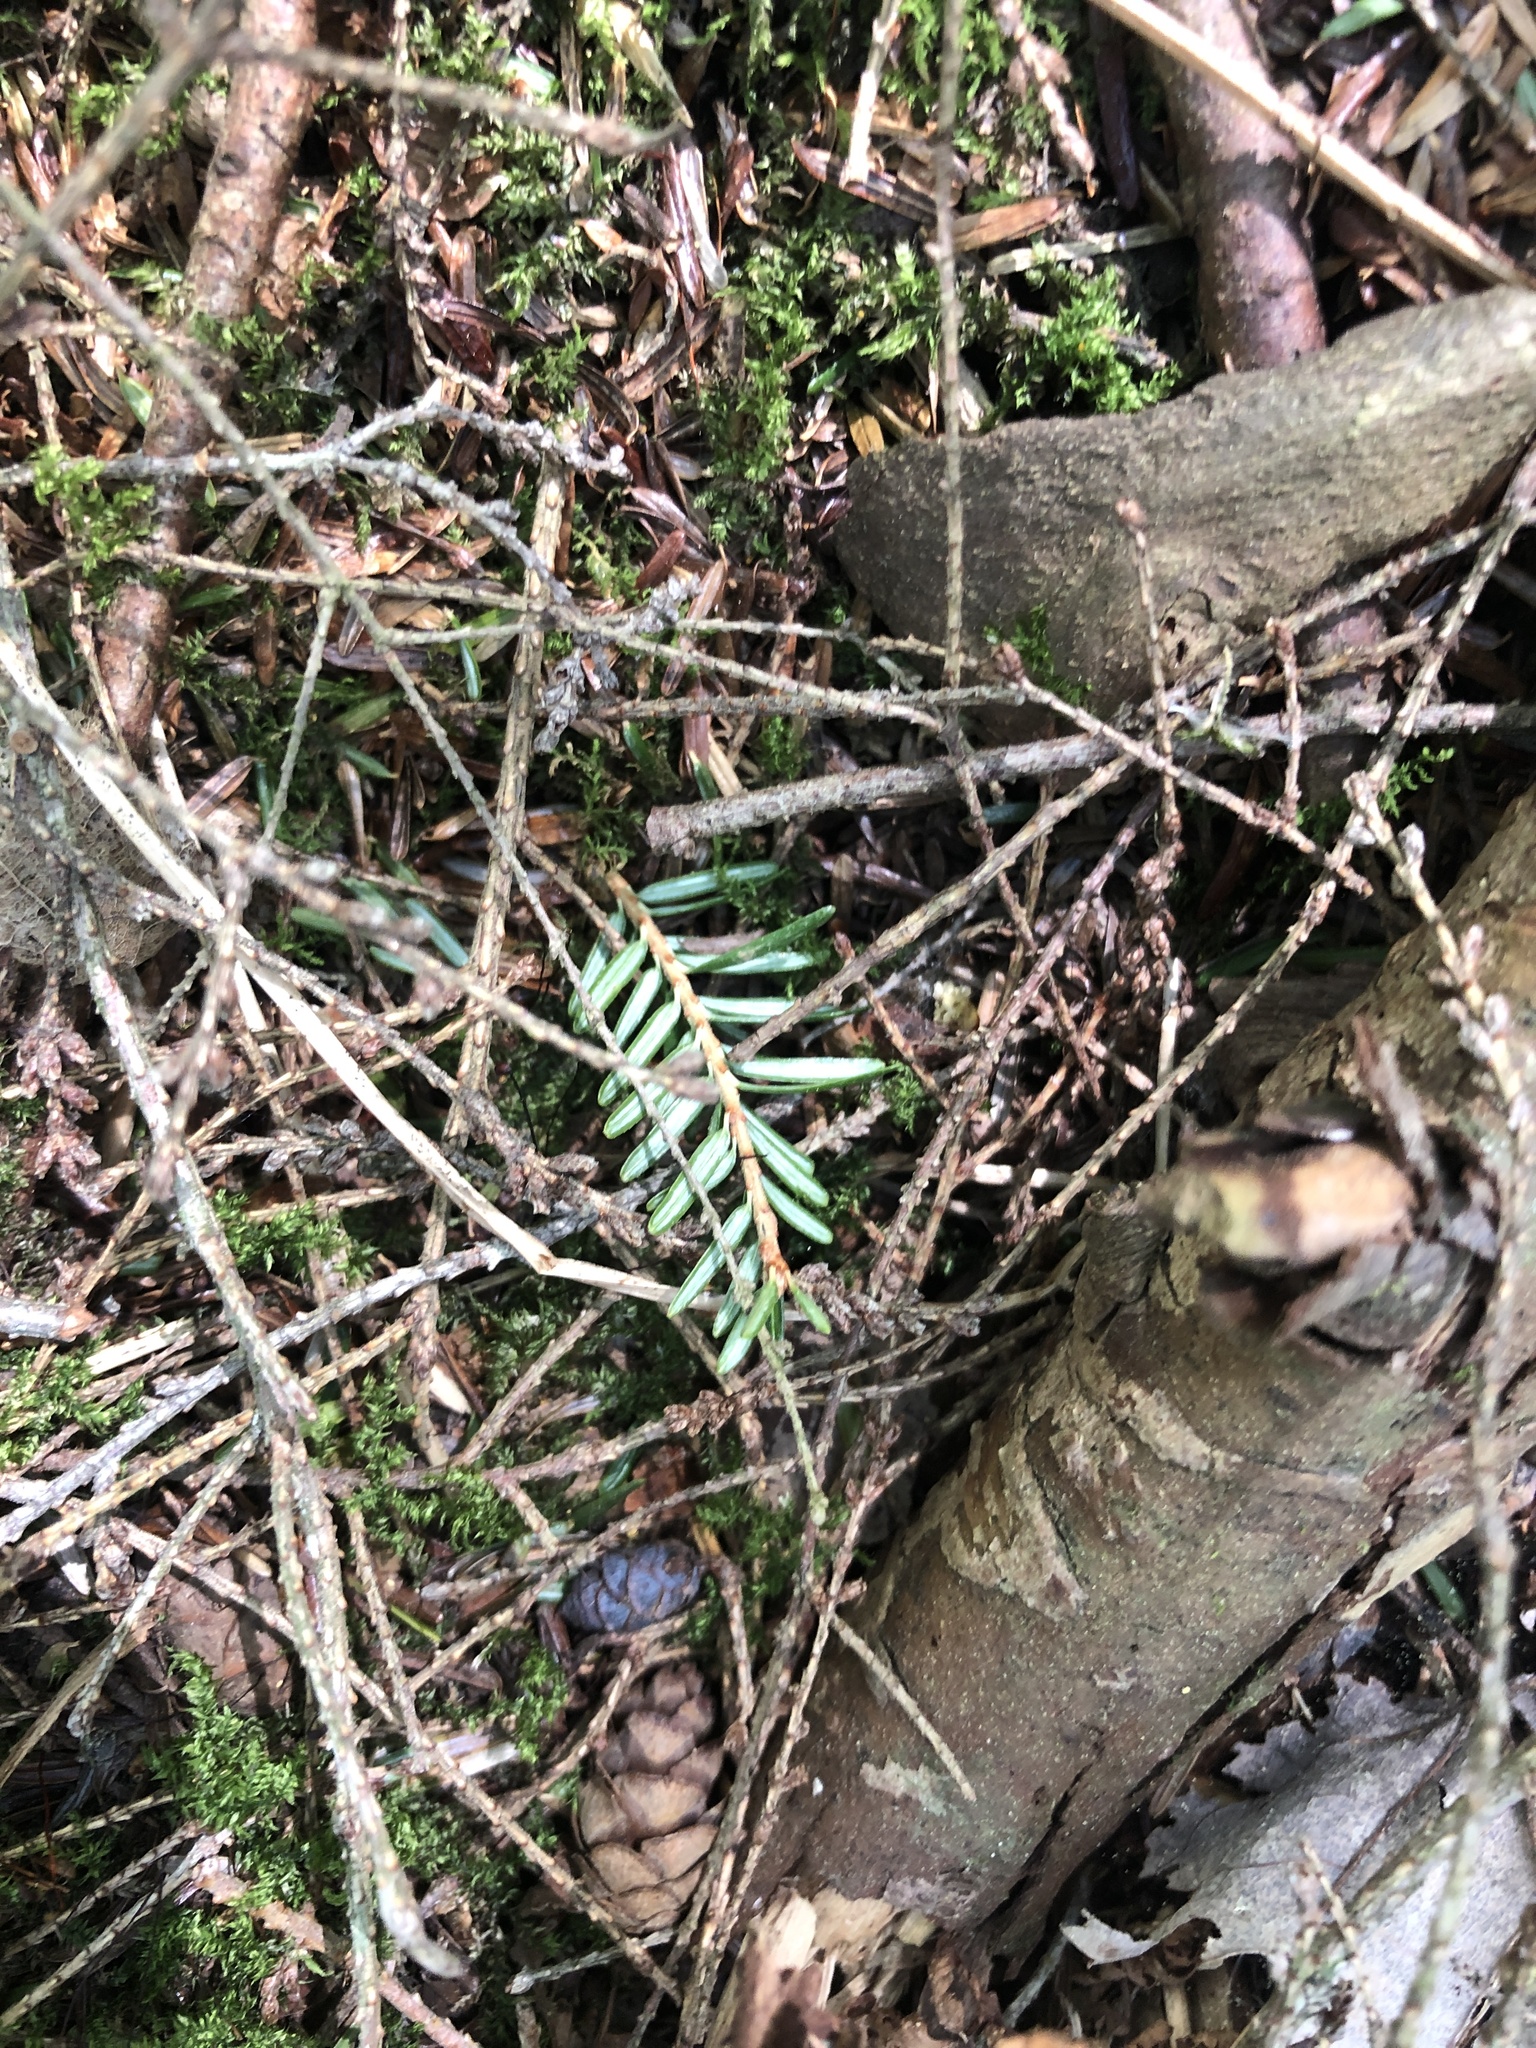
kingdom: Plantae
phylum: Tracheophyta
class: Pinopsida
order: Pinales
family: Pinaceae
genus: Tsuga
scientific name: Tsuga canadensis
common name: Eastern hemlock
